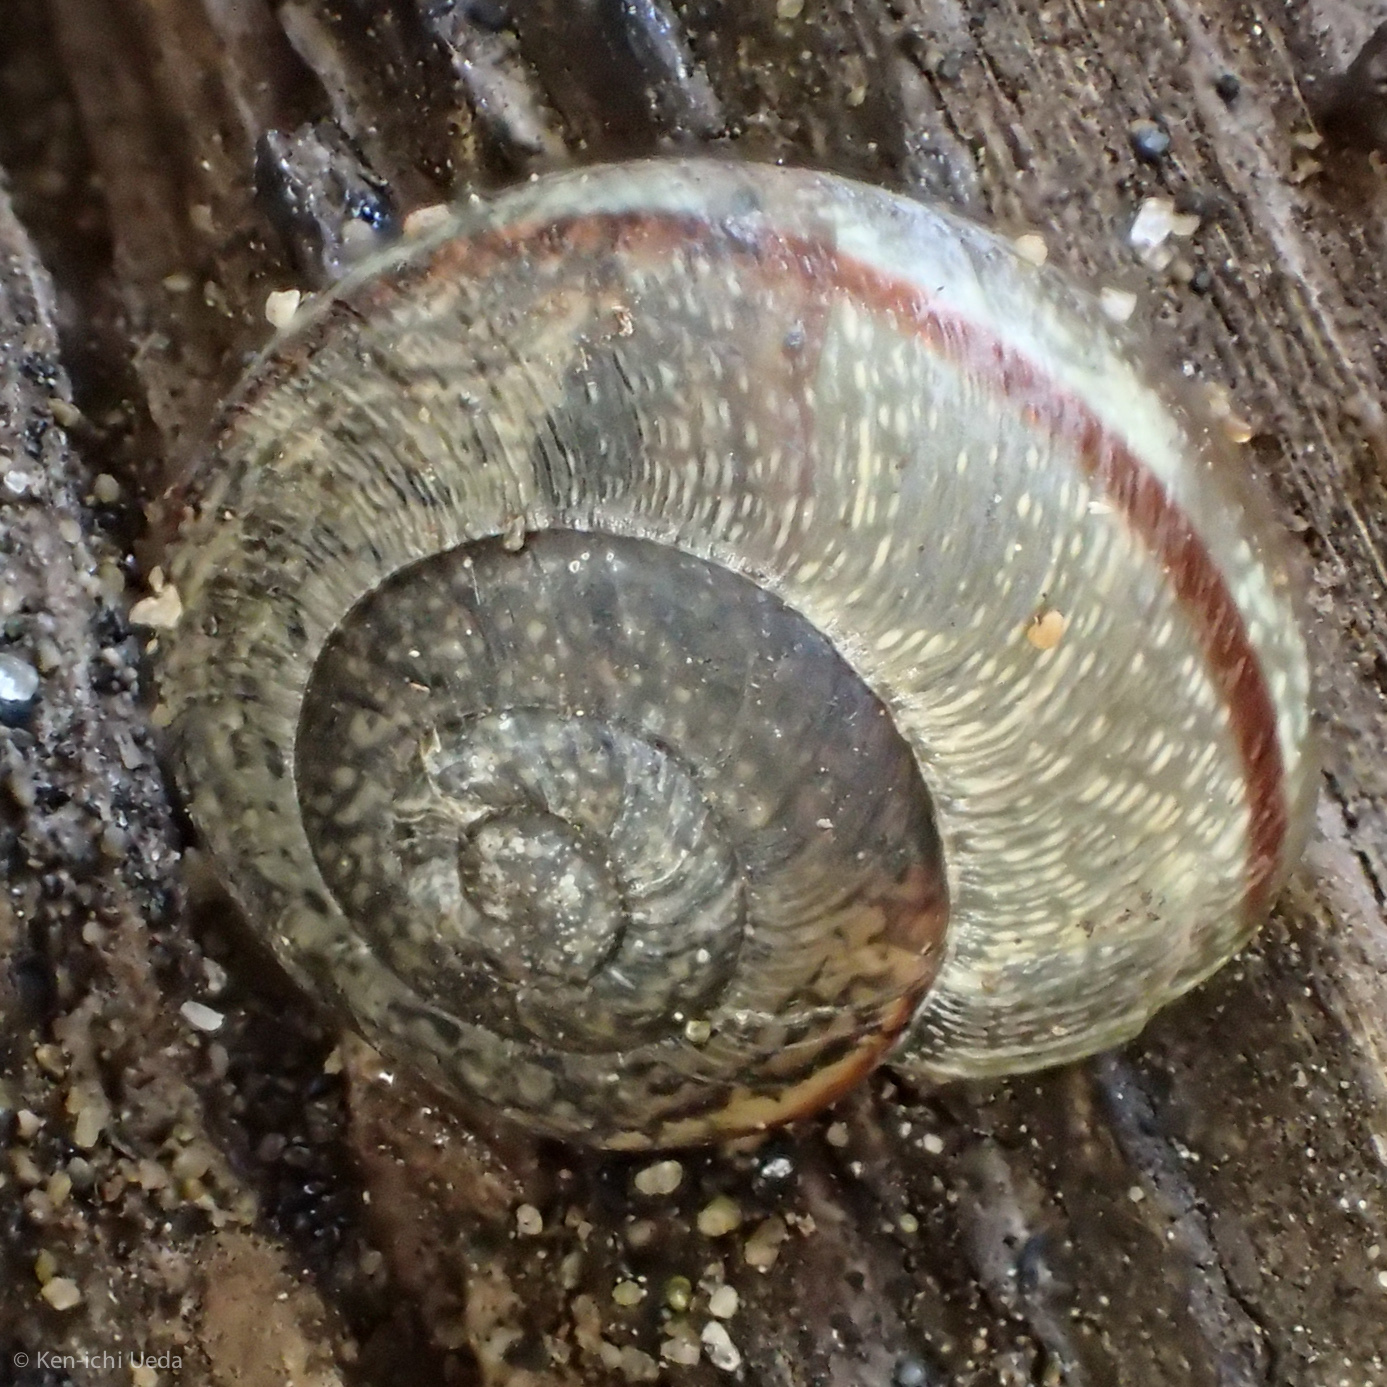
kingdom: Animalia
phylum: Mollusca
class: Gastropoda
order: Stylommatophora
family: Xanthonychidae
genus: Helminthoglypta
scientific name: Helminthoglypta nickliniana
